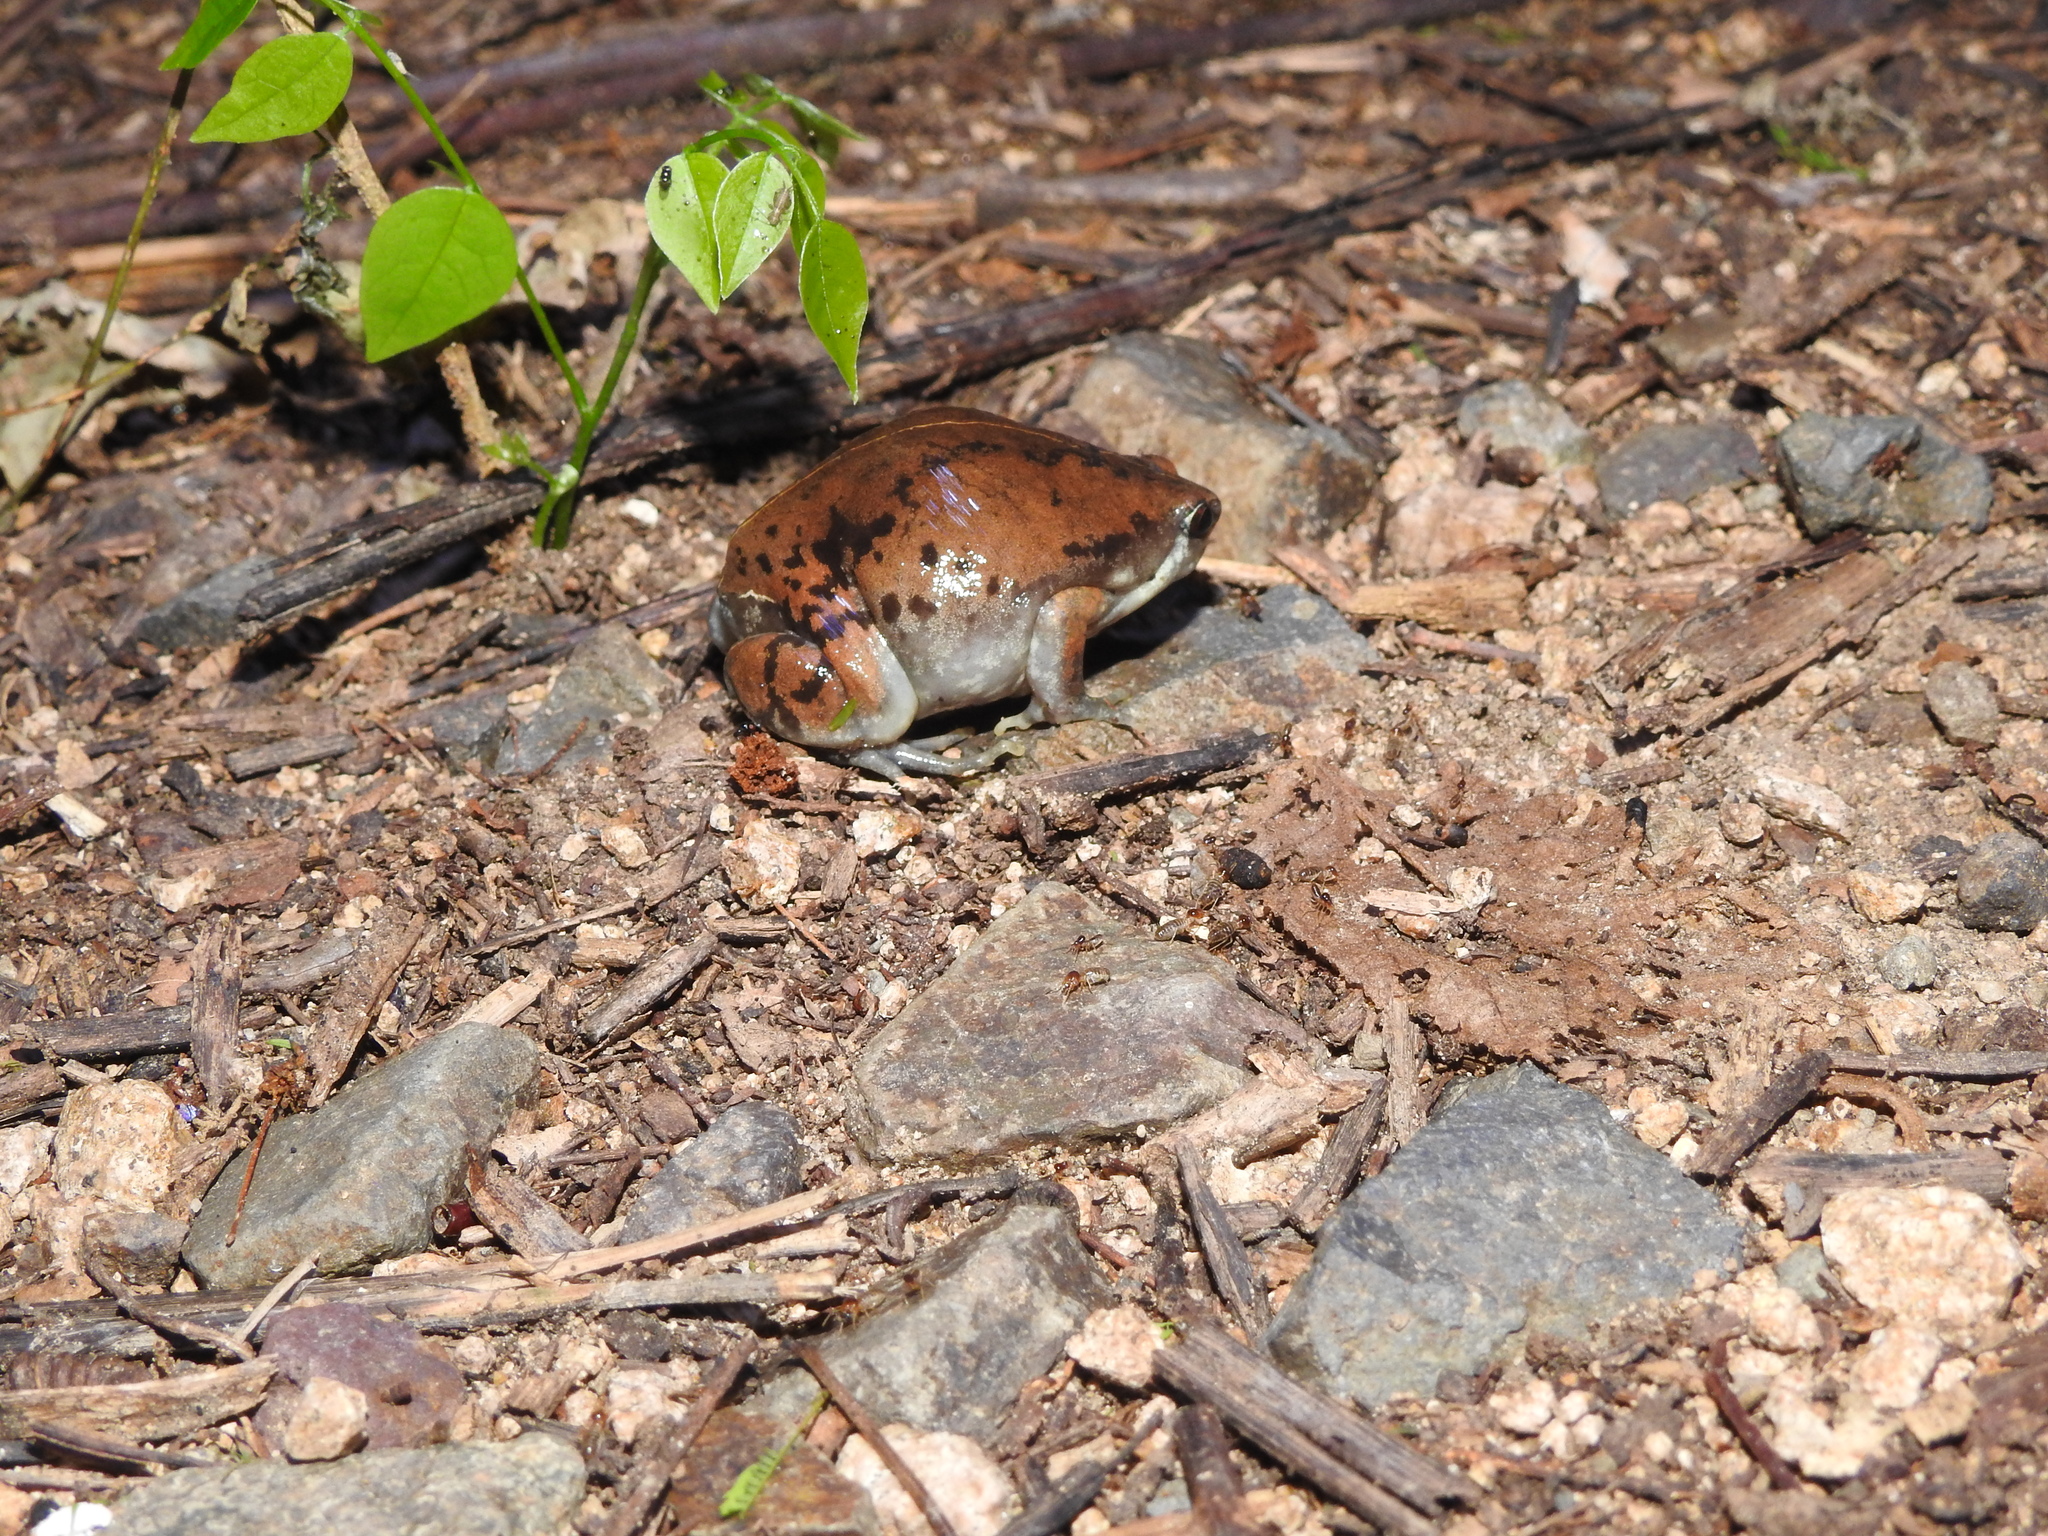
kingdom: Animalia
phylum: Chordata
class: Amphibia
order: Anura
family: Microhylidae
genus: Hypopachus
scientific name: Hypopachus ustus
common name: Two-spade narrowmouth toad
